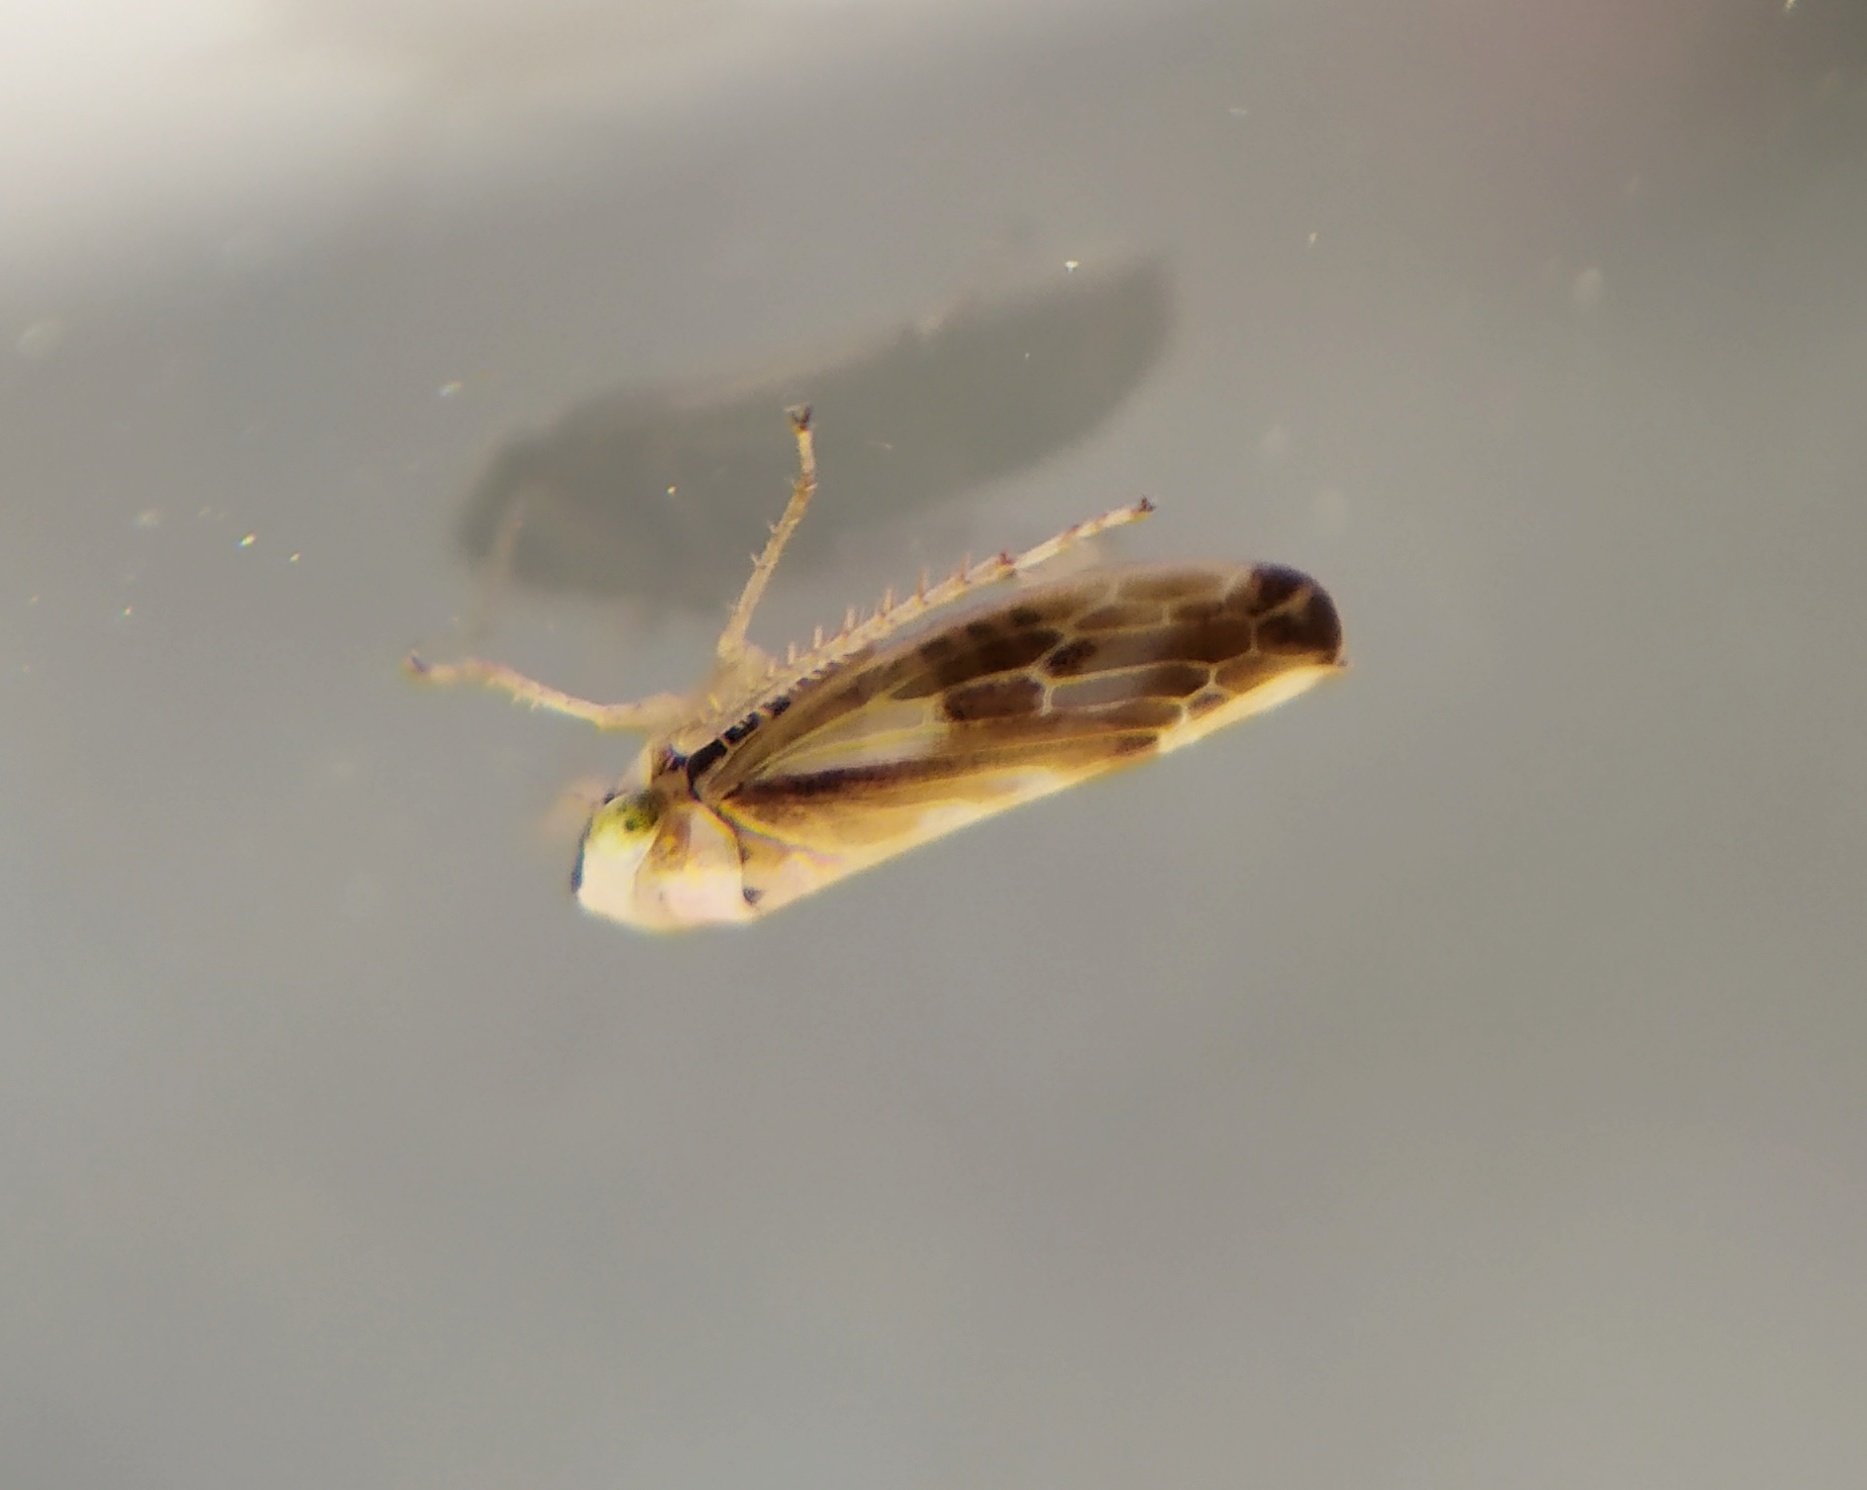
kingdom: Animalia
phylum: Arthropoda
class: Insecta
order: Hemiptera
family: Cicadellidae
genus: Pithyotettix
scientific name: Pithyotettix abietinus
